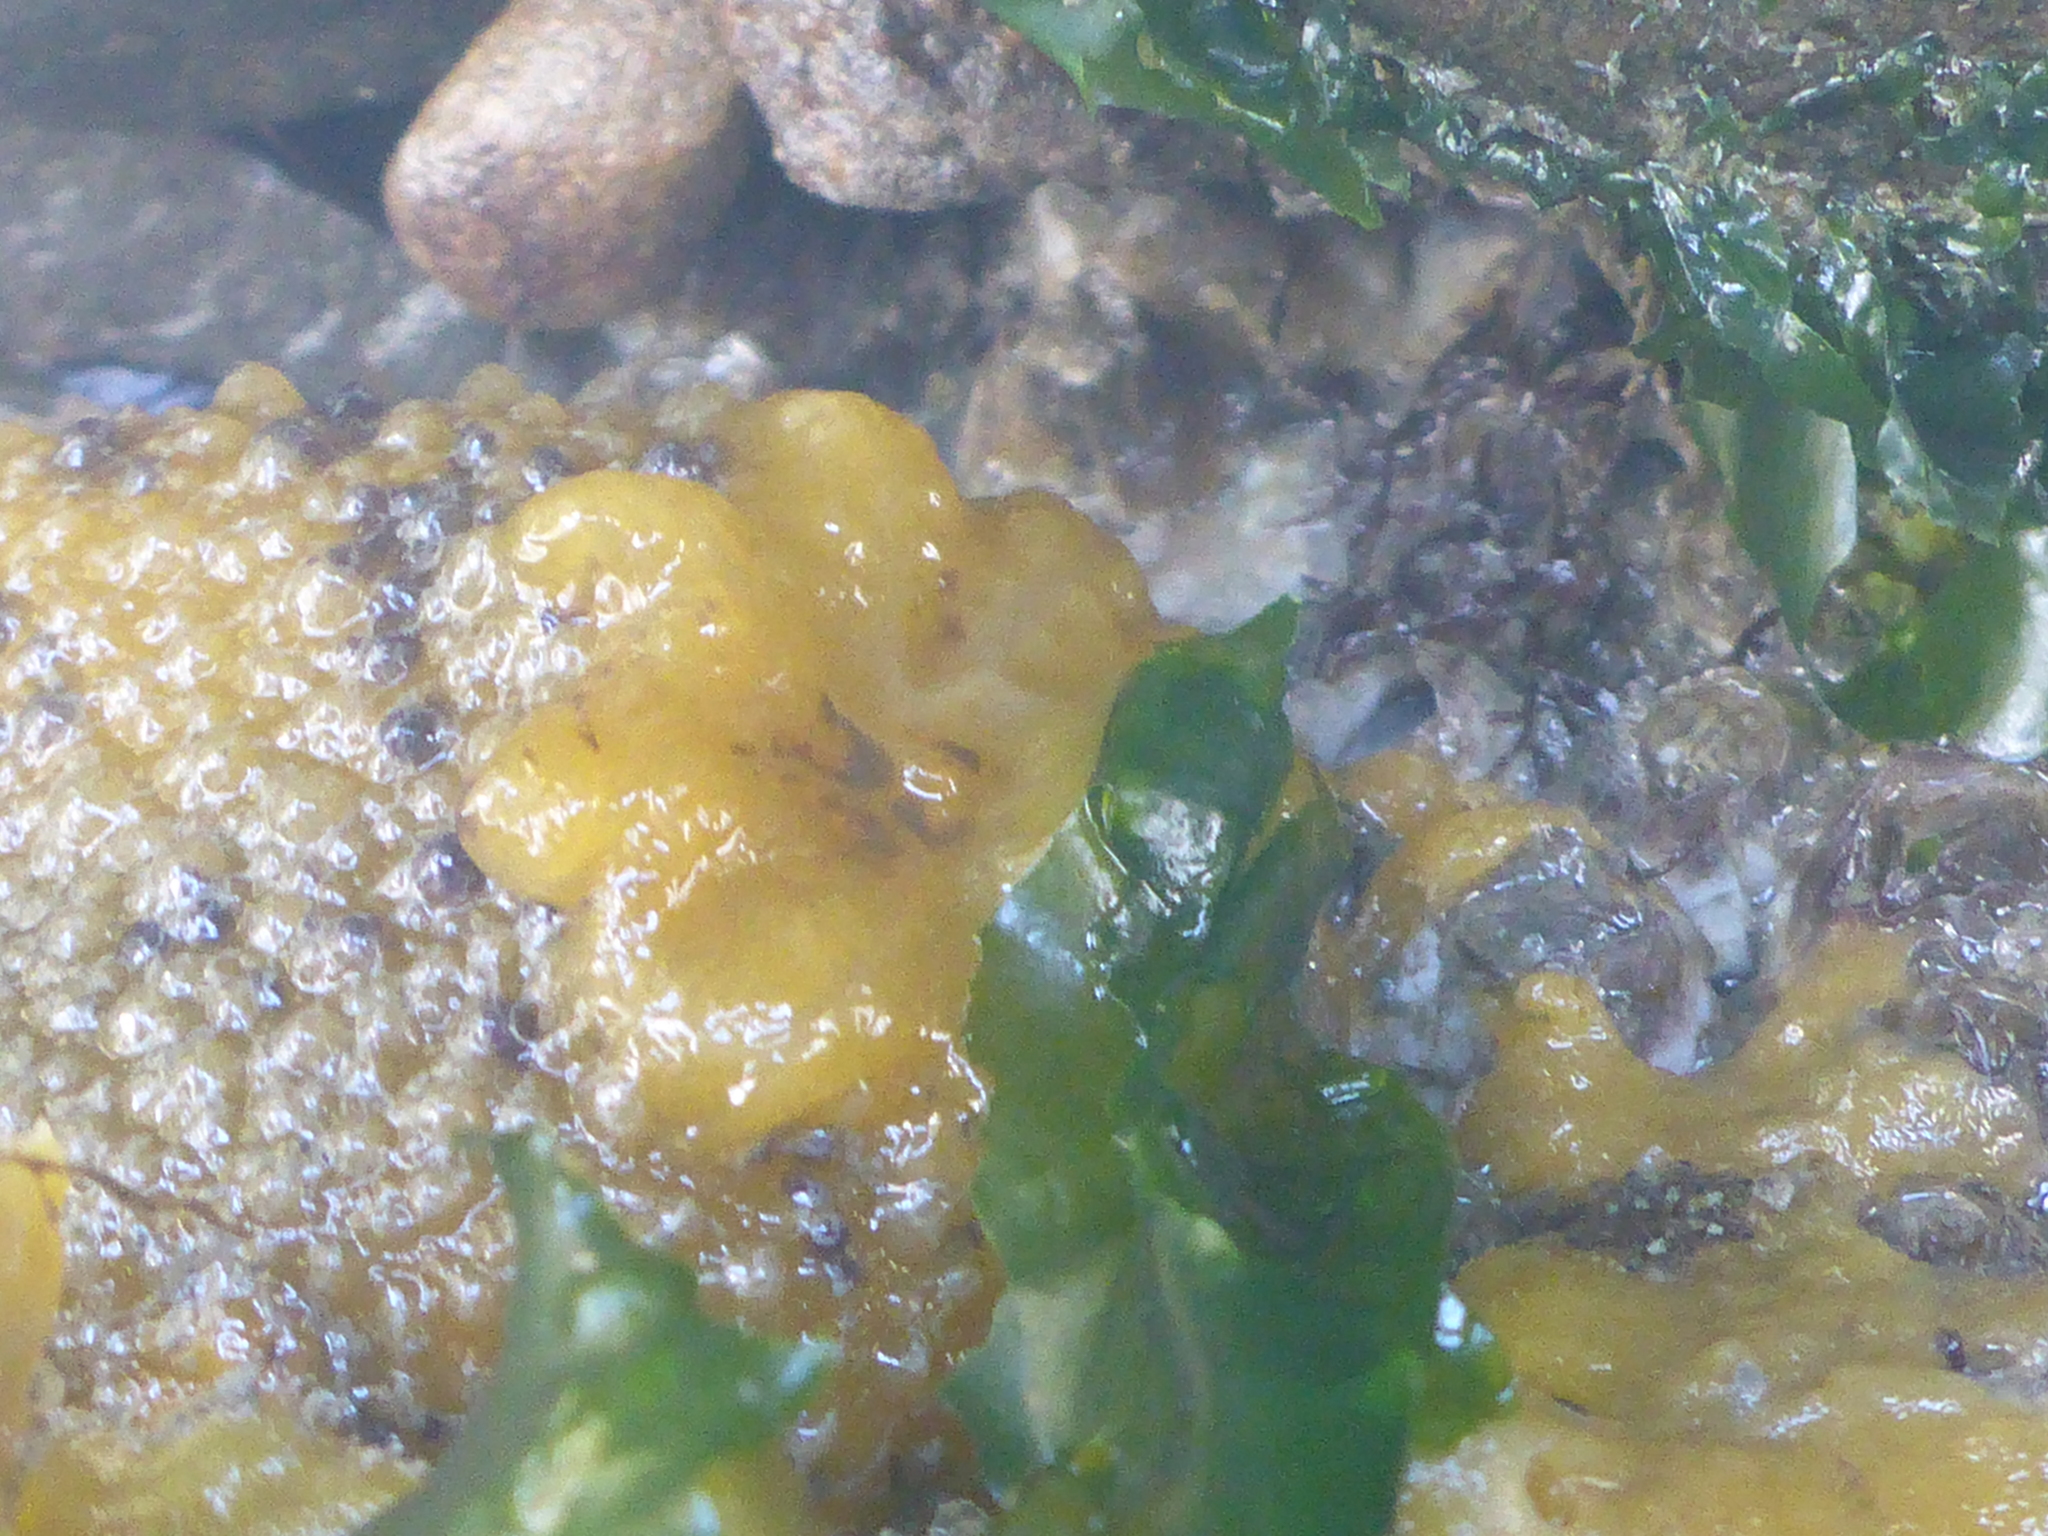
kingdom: Animalia
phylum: Mollusca
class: Gastropoda
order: Nudibranchia
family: Dorididae
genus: Doris
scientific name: Doris montereyensis
